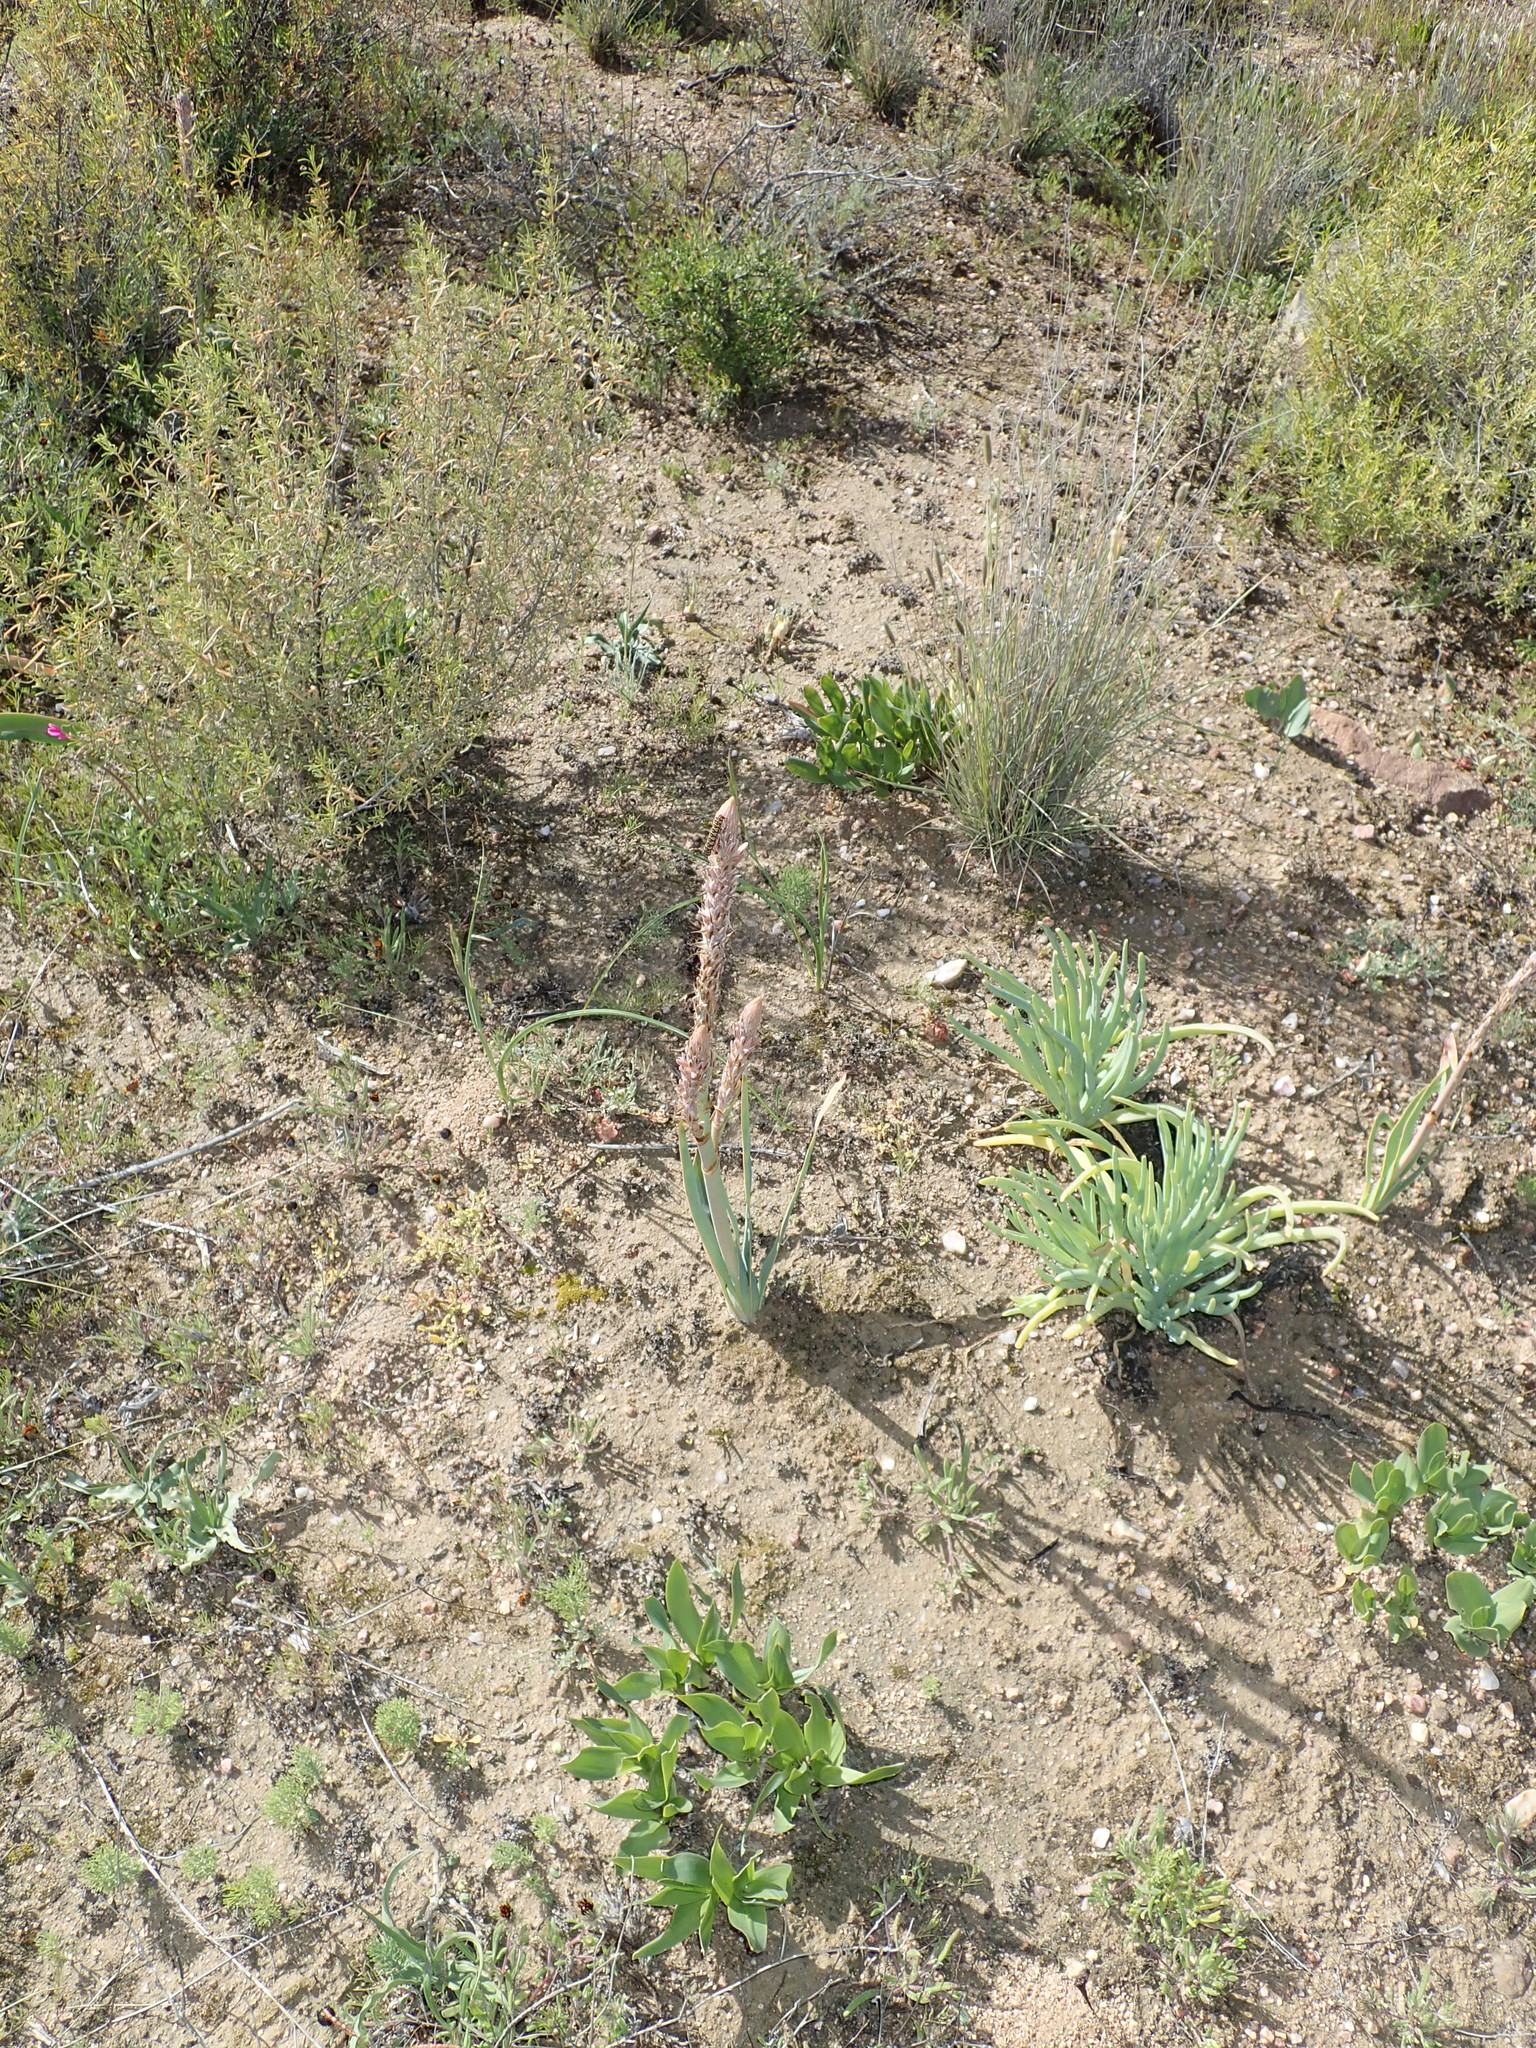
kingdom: Plantae
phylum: Tracheophyta
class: Liliopsida
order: Asparagales
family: Asphodelaceae
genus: Trachyandra
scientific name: Trachyandra falcata
